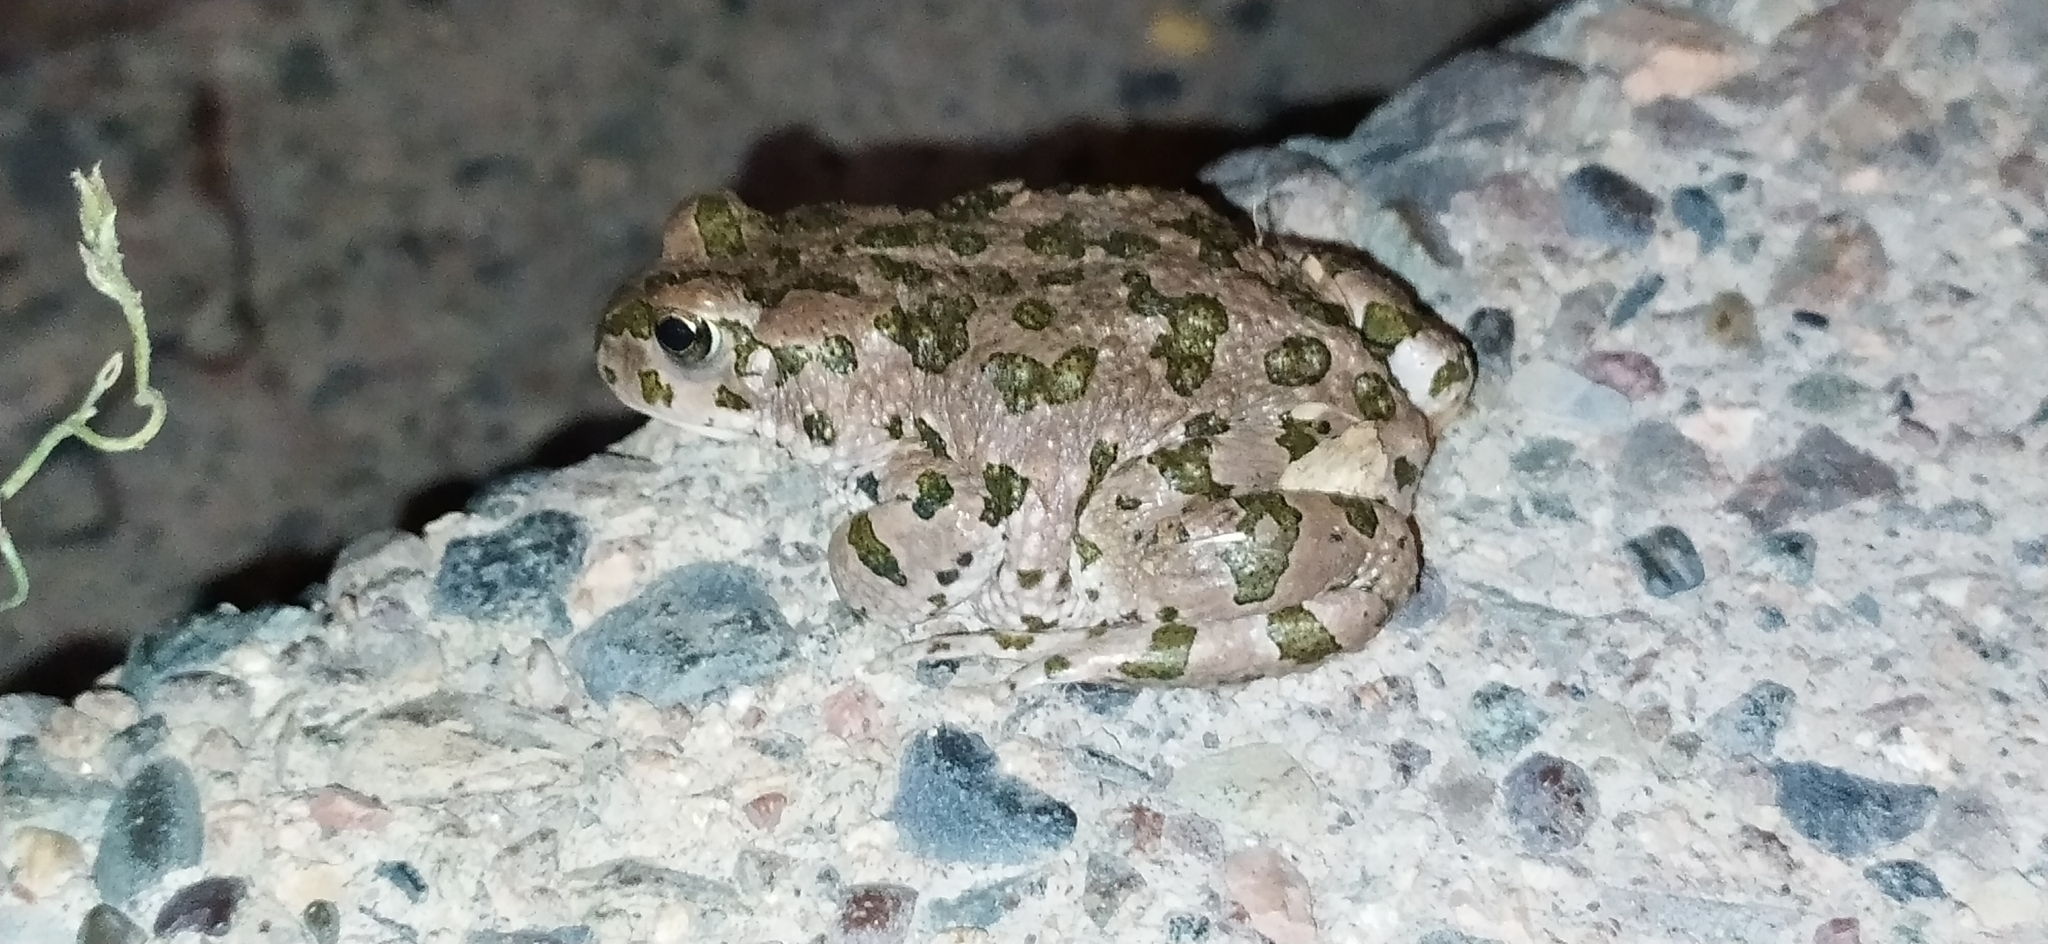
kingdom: Animalia
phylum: Chordata
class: Amphibia
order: Anura
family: Bufonidae
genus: Bufotes
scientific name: Bufotes pewzowi
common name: Xinjiang toad
